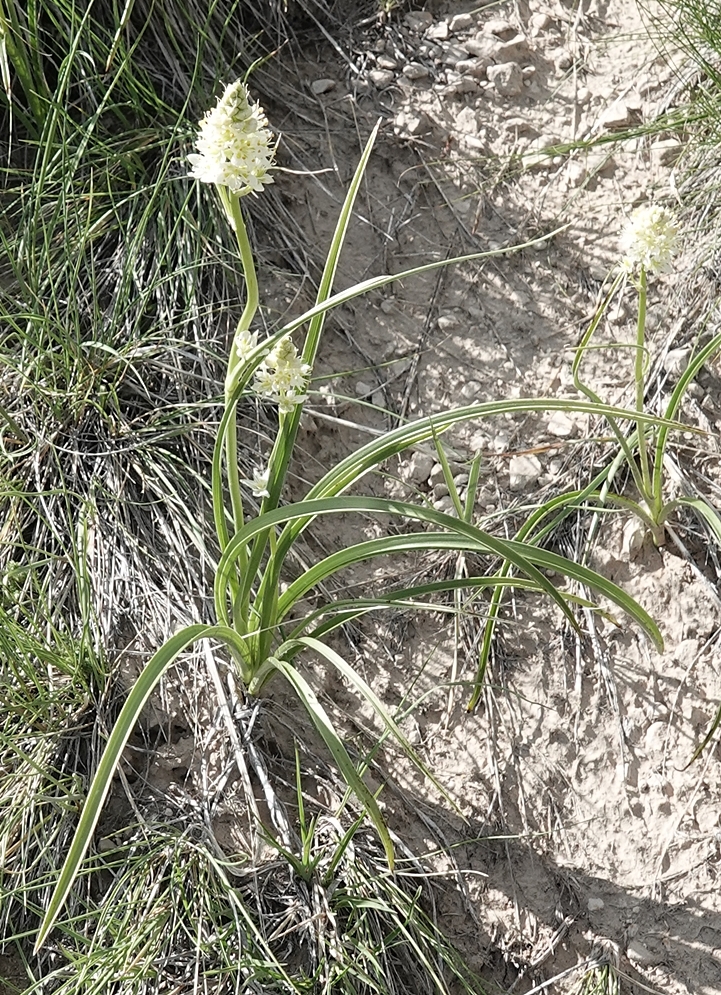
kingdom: Plantae
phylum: Tracheophyta
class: Liliopsida
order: Liliales
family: Melanthiaceae
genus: Toxicoscordion
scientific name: Toxicoscordion venenosum
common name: Meadow death camas
